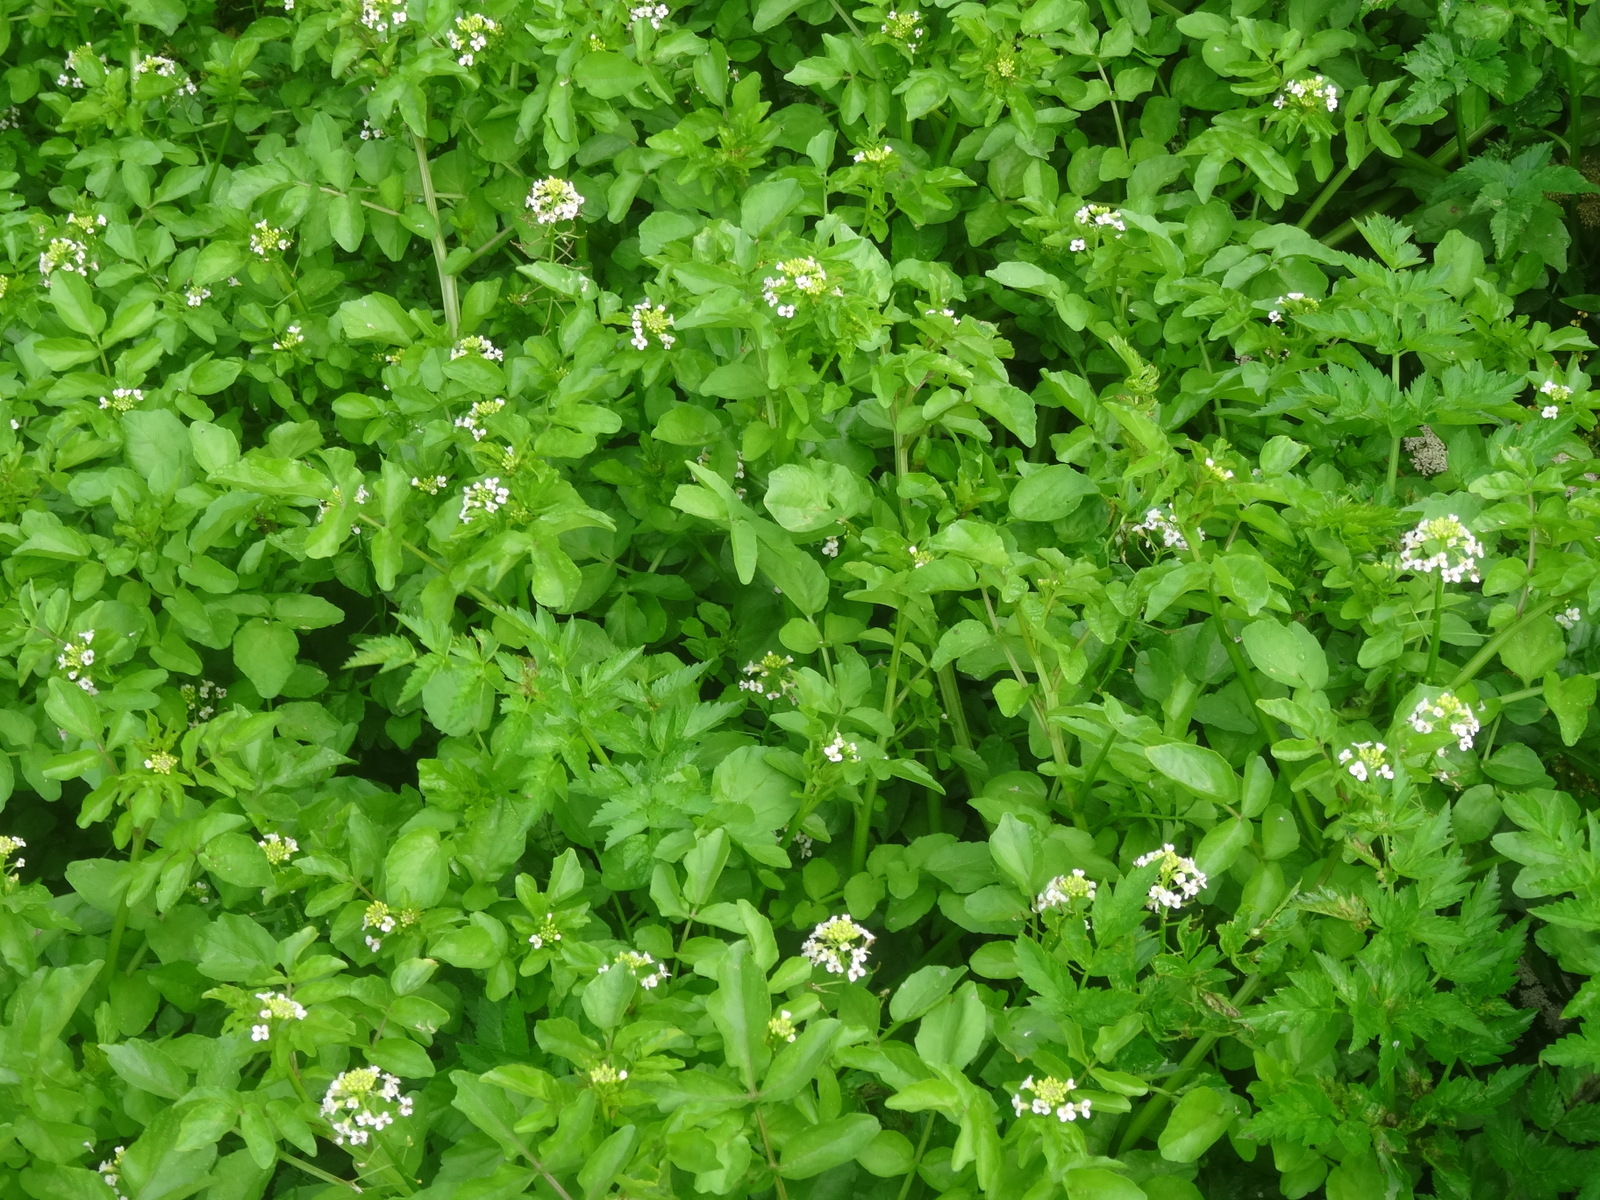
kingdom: Plantae
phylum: Tracheophyta
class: Magnoliopsida
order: Brassicales
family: Brassicaceae
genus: Nasturtium
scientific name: Nasturtium officinale
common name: Watercress
